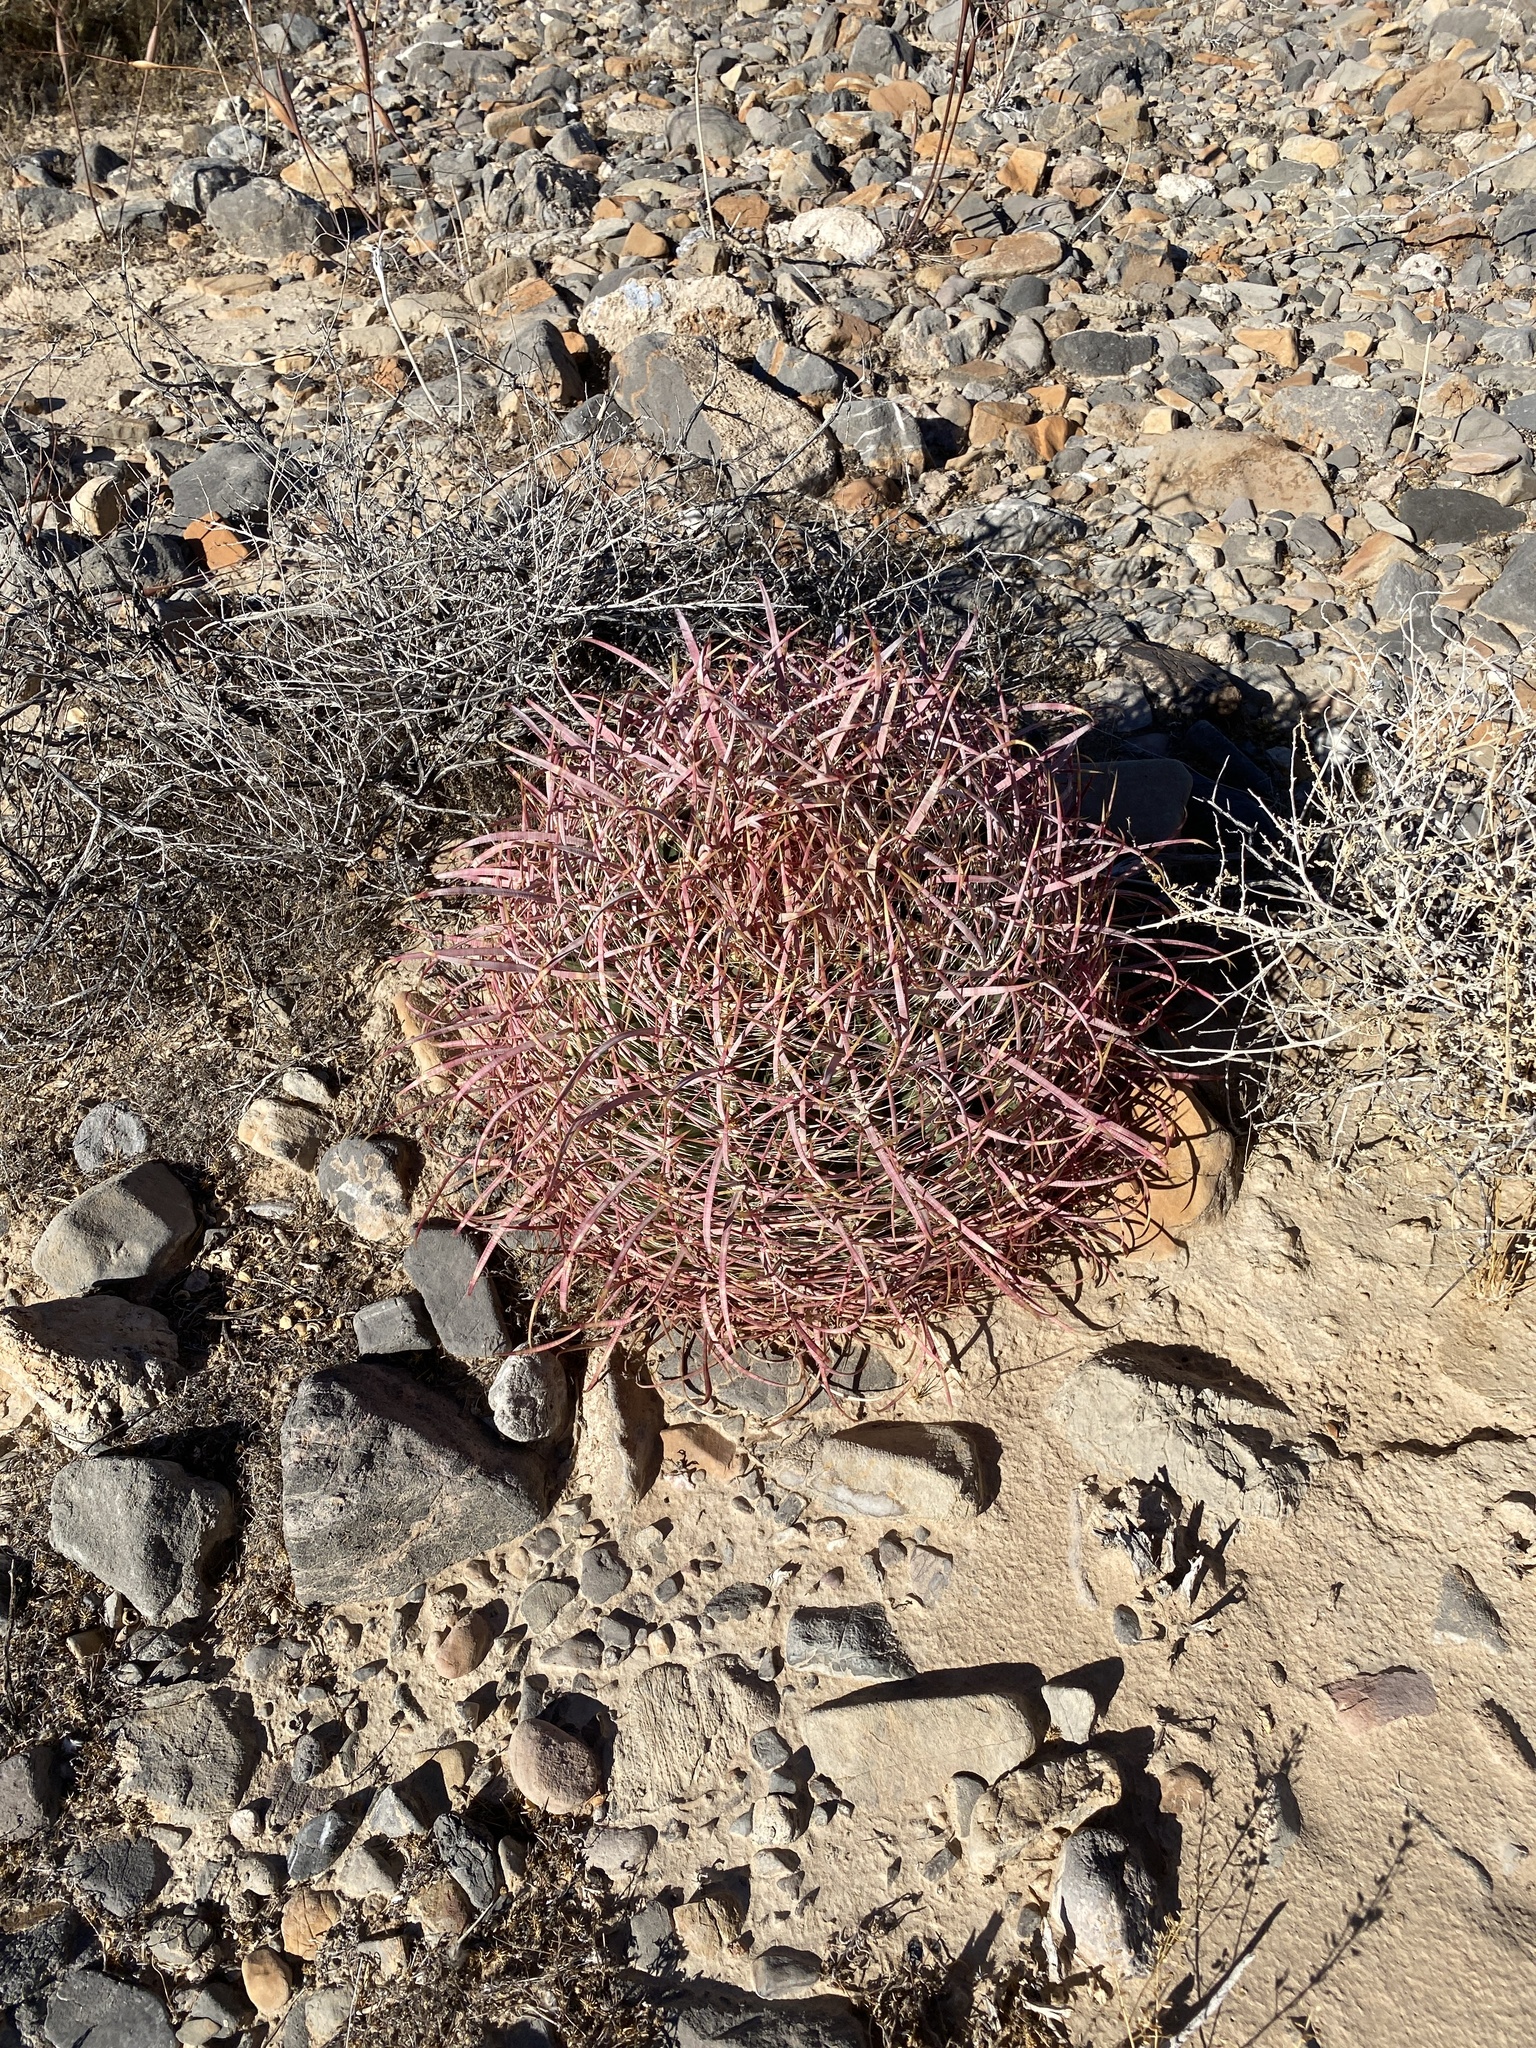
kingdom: Plantae
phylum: Tracheophyta
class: Magnoliopsida
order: Caryophyllales
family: Cactaceae
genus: Ferocactus
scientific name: Ferocactus cylindraceus
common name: California barrel cactus
